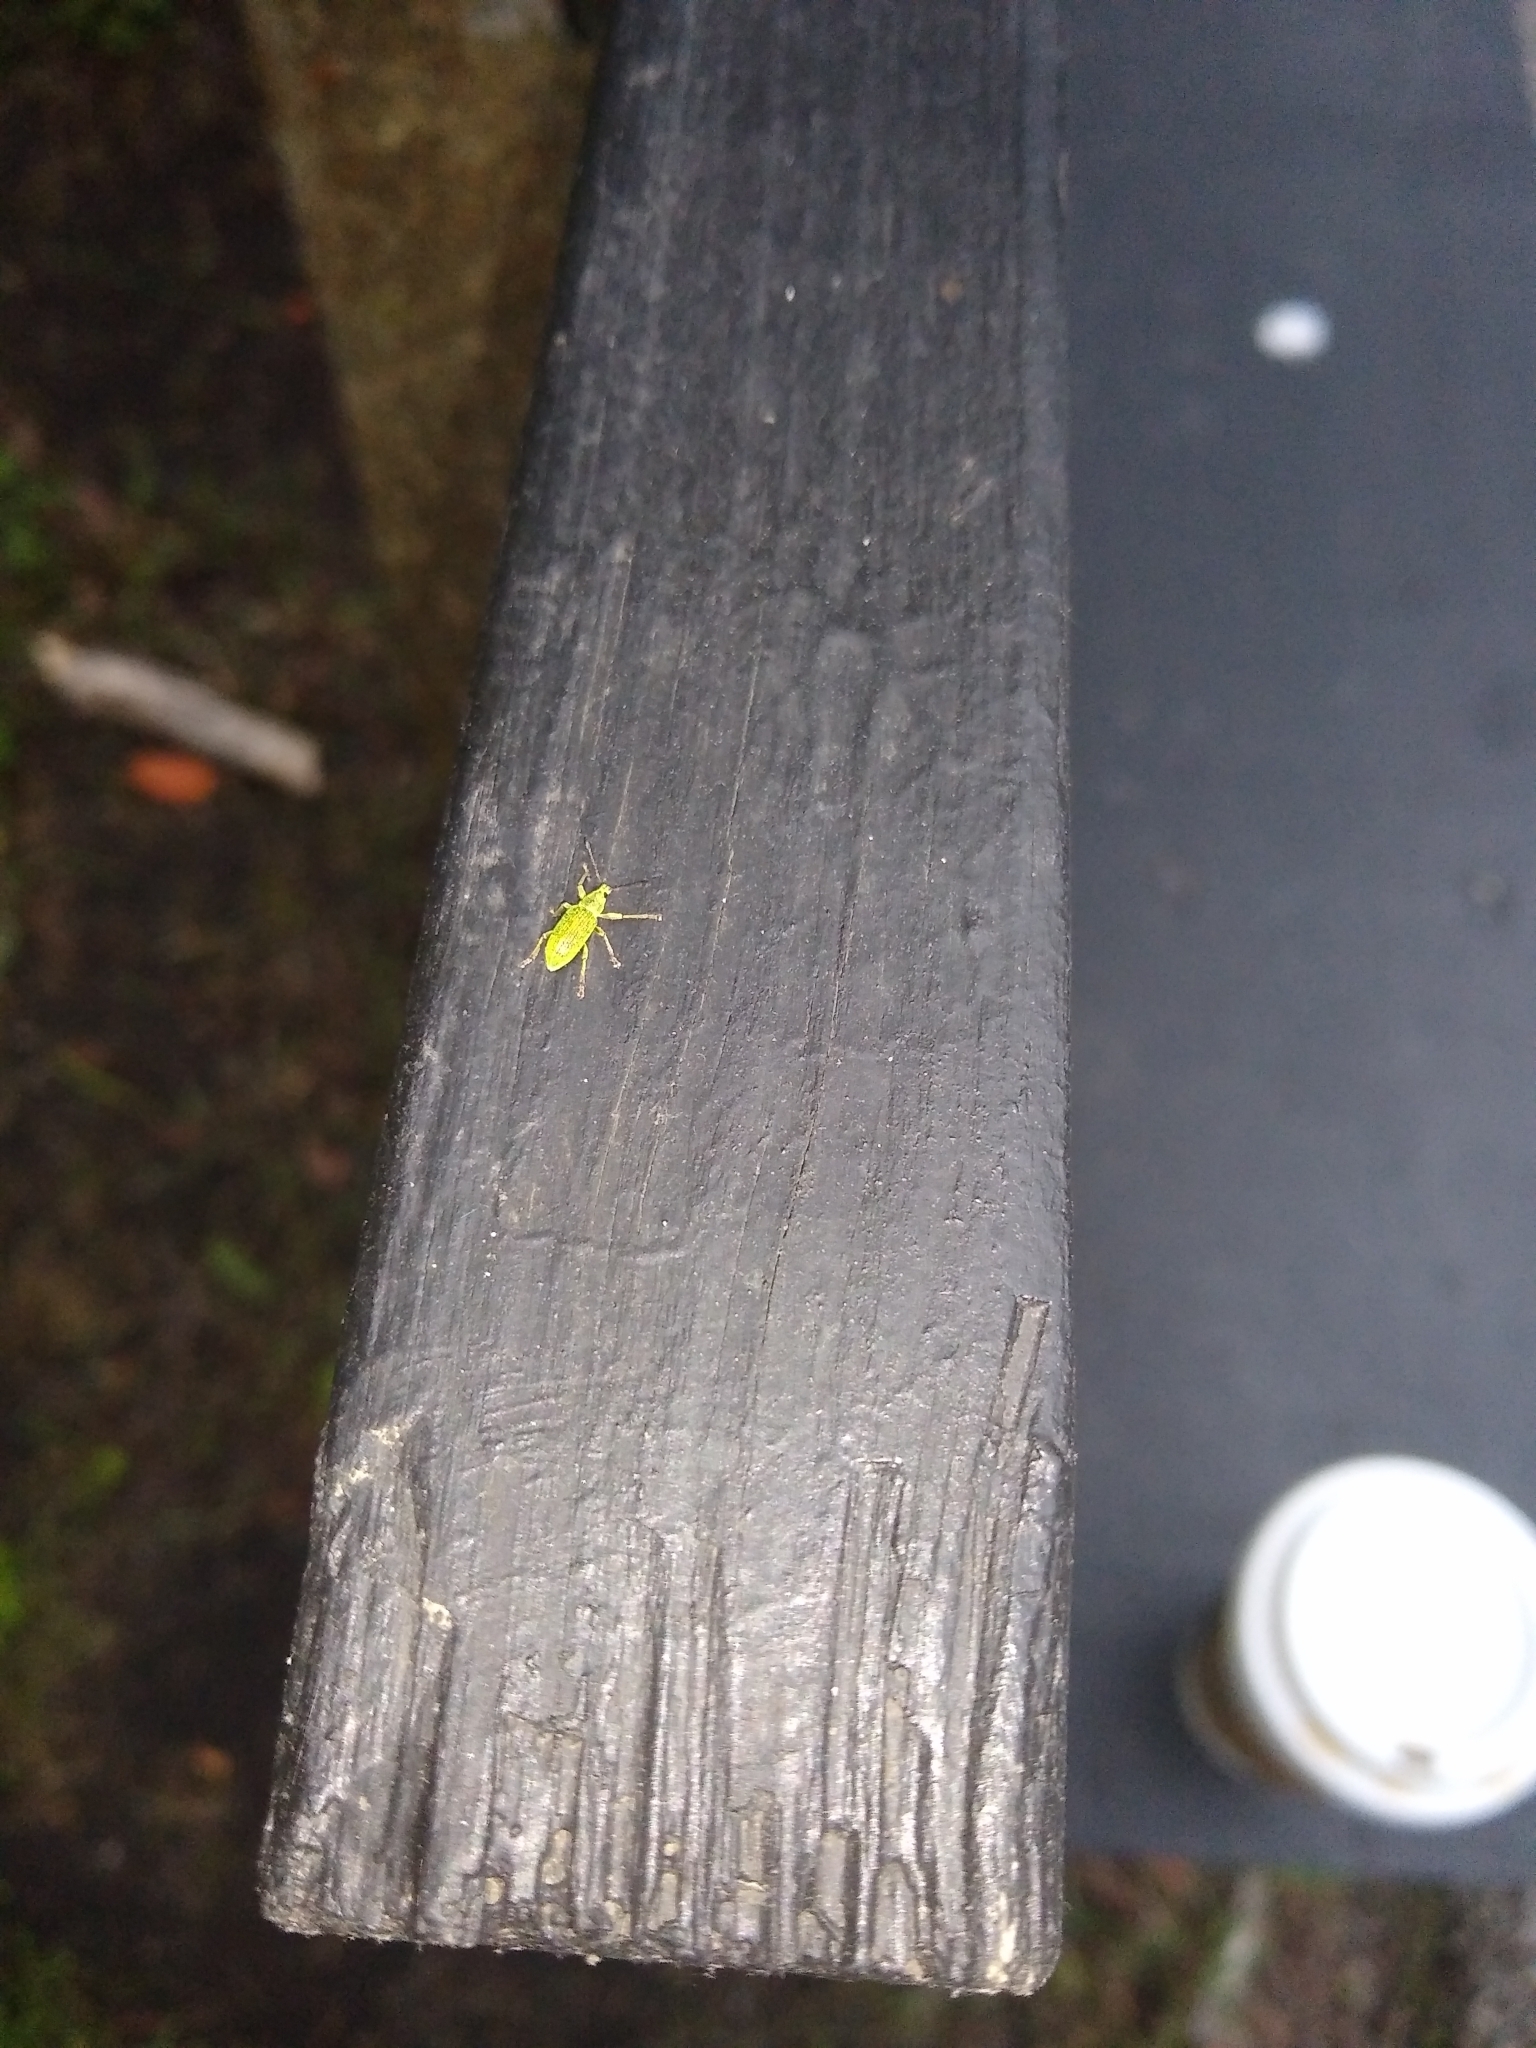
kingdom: Animalia
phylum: Arthropoda
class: Insecta
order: Coleoptera
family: Curculionidae
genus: Polydrusus
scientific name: Polydrusus formosus
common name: Weevil
